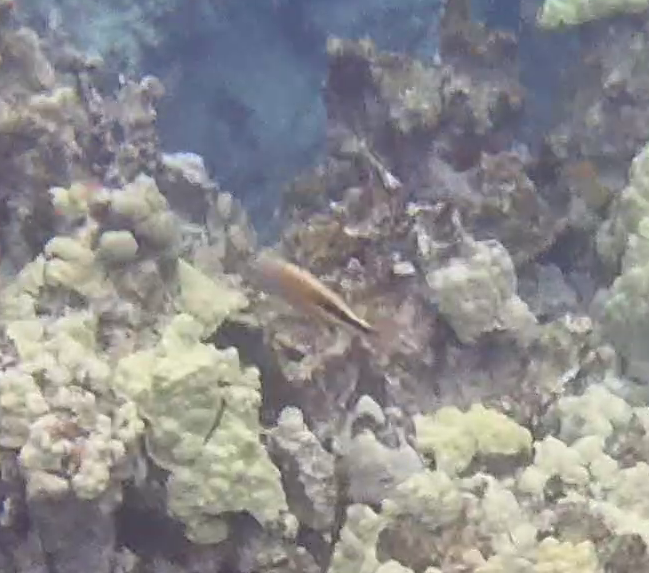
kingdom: Animalia
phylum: Chordata
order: Perciformes
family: Cirrhitidae
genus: Paracirrhites
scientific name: Paracirrhites forsteri
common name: Freckled hawkfish
